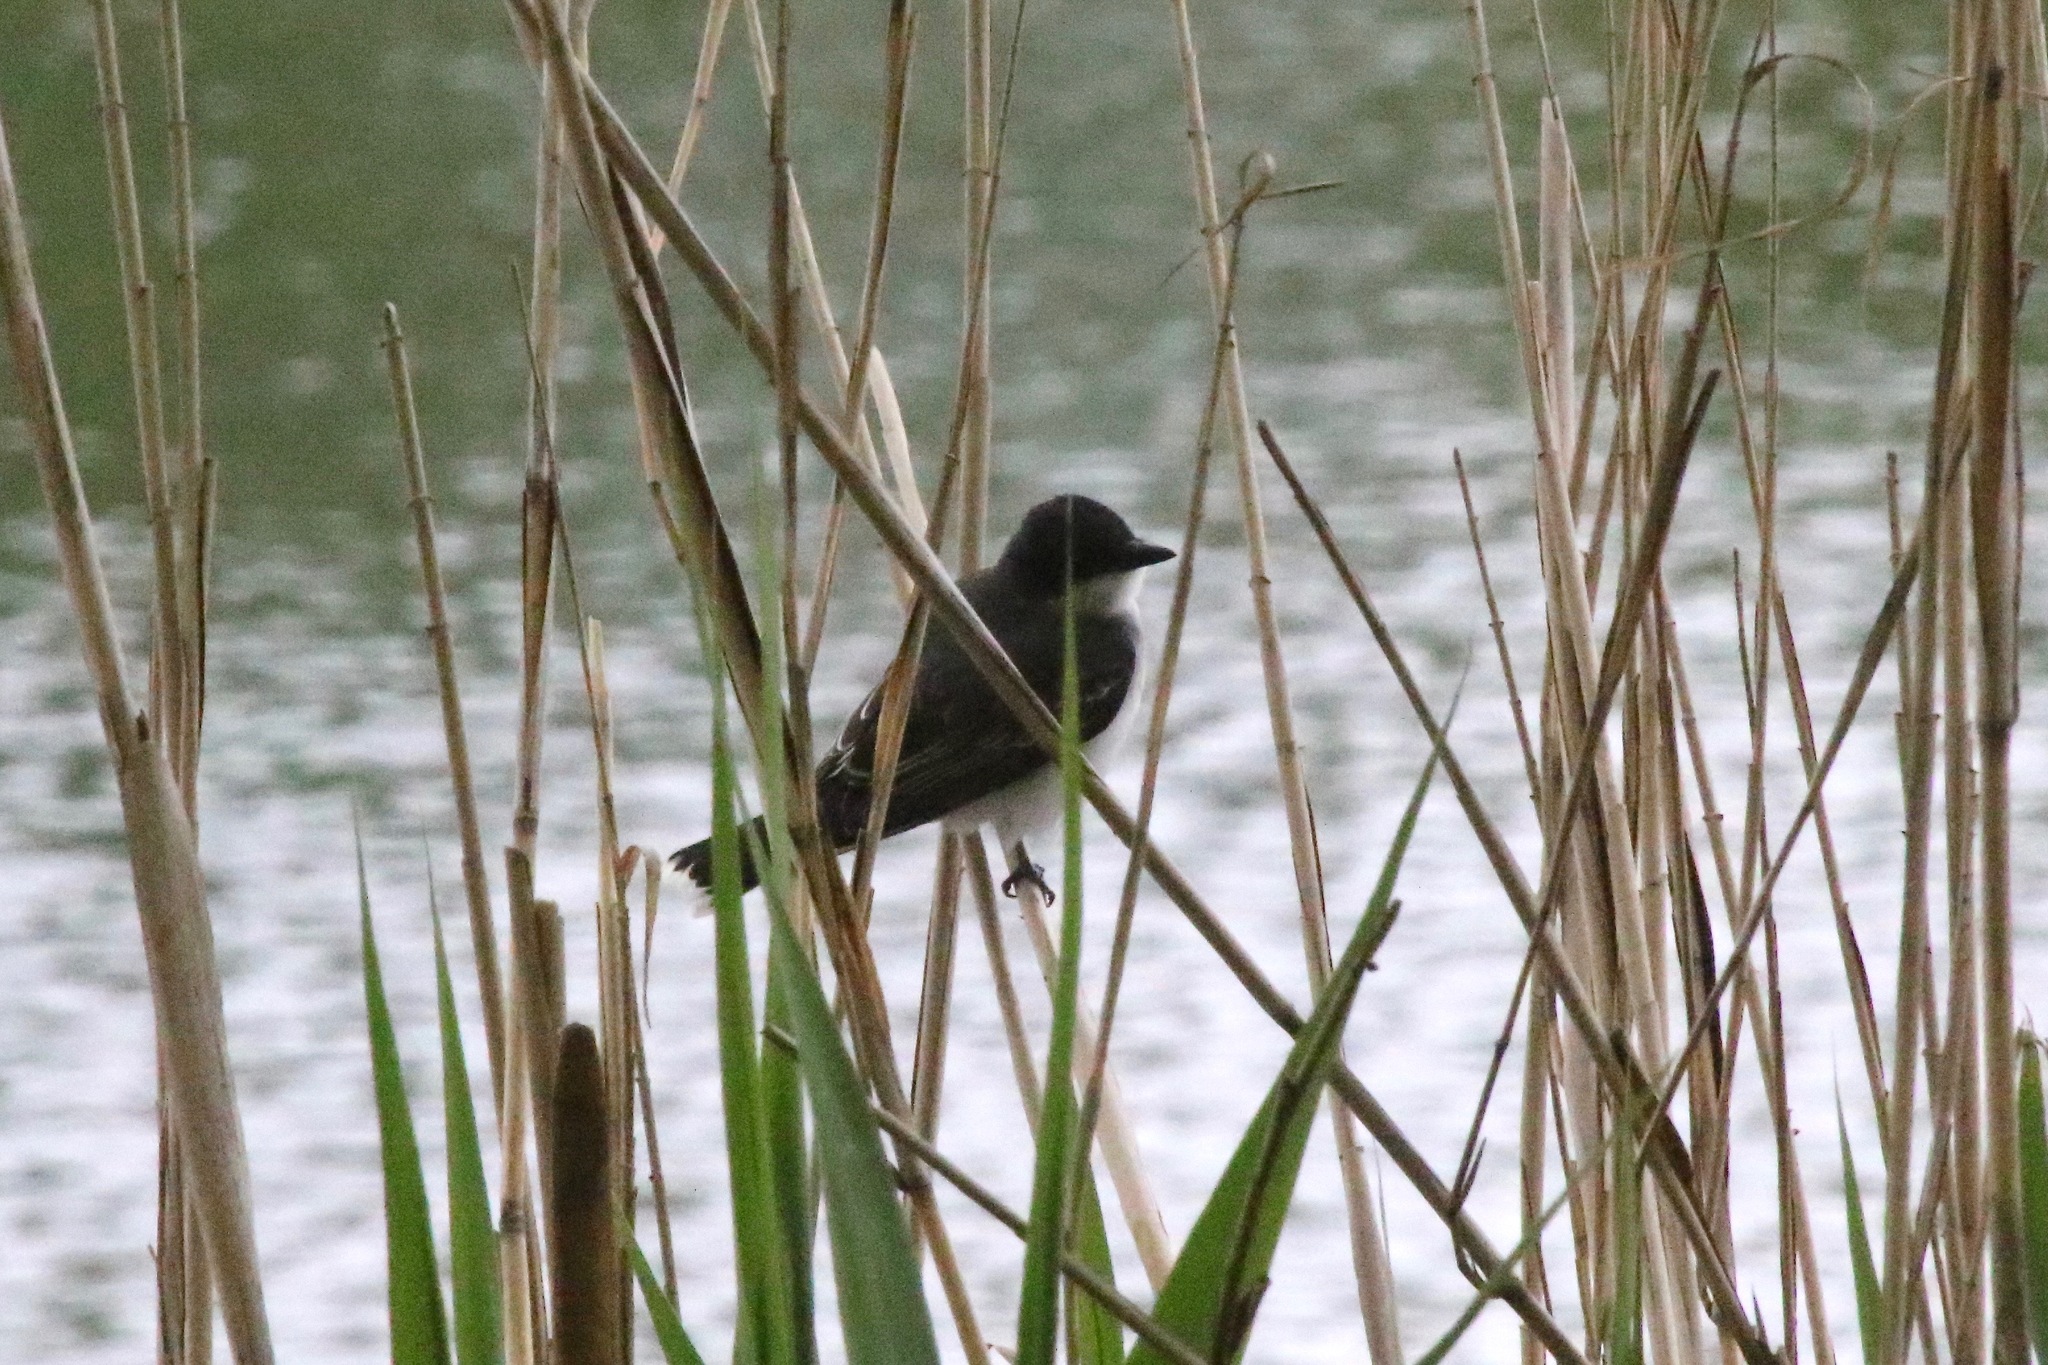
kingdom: Animalia
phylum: Chordata
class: Aves
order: Passeriformes
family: Tyrannidae
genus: Tyrannus
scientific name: Tyrannus tyrannus
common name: Eastern kingbird
